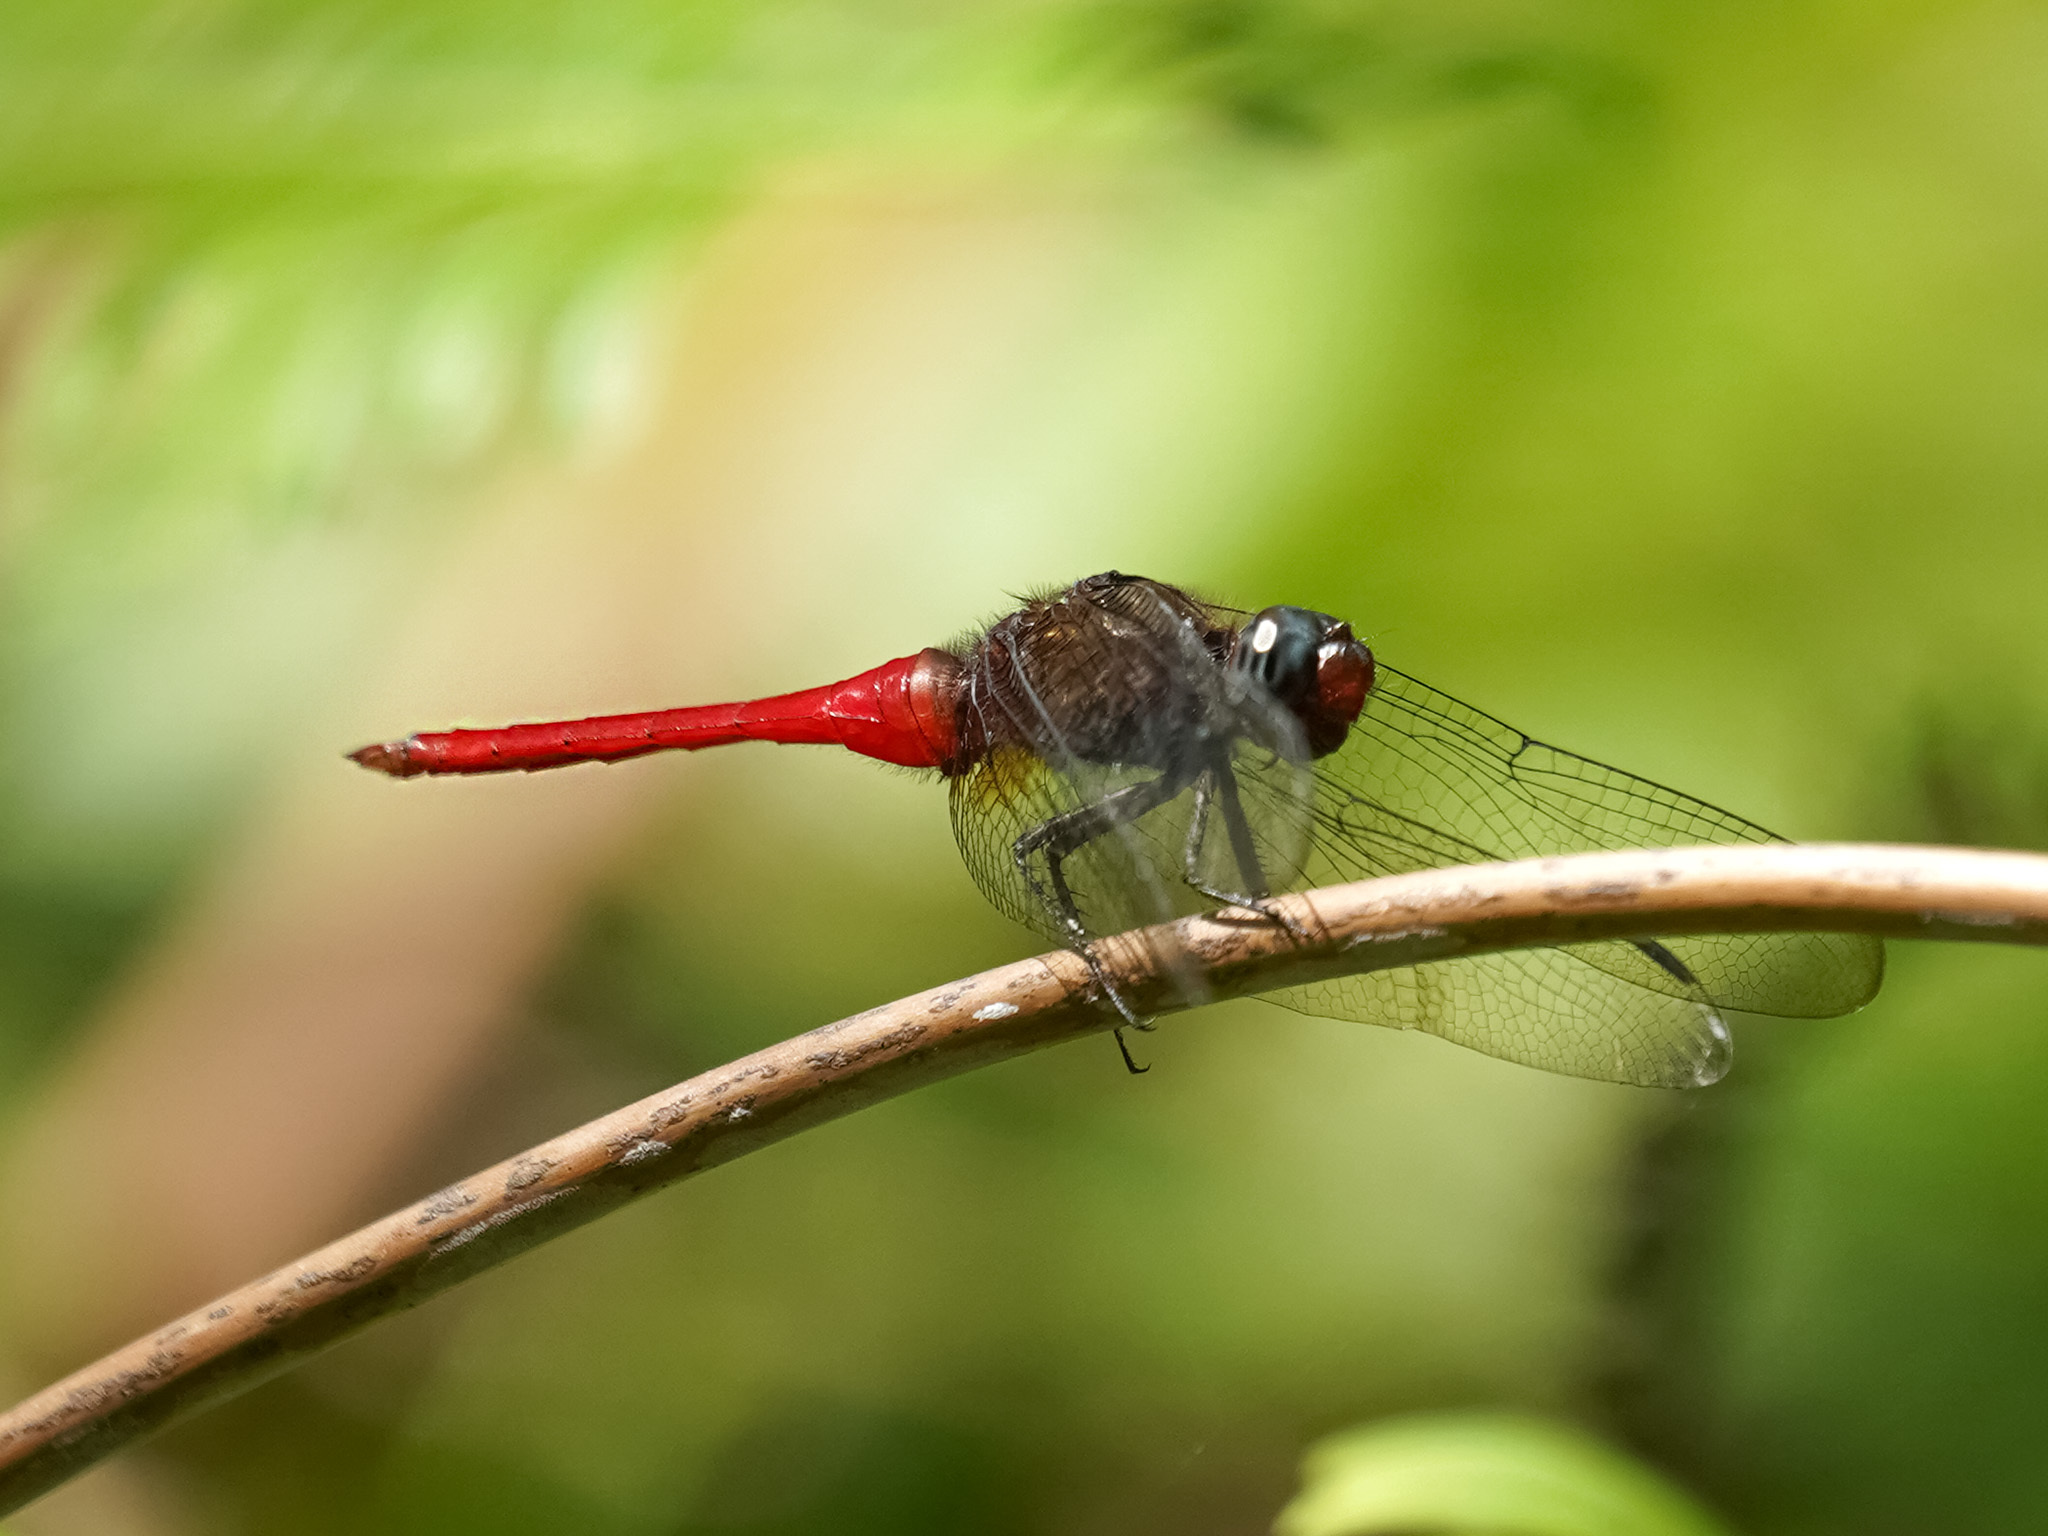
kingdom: Animalia
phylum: Arthropoda
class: Insecta
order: Odonata
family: Libellulidae
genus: Orthetrum
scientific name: Orthetrum chrysis
